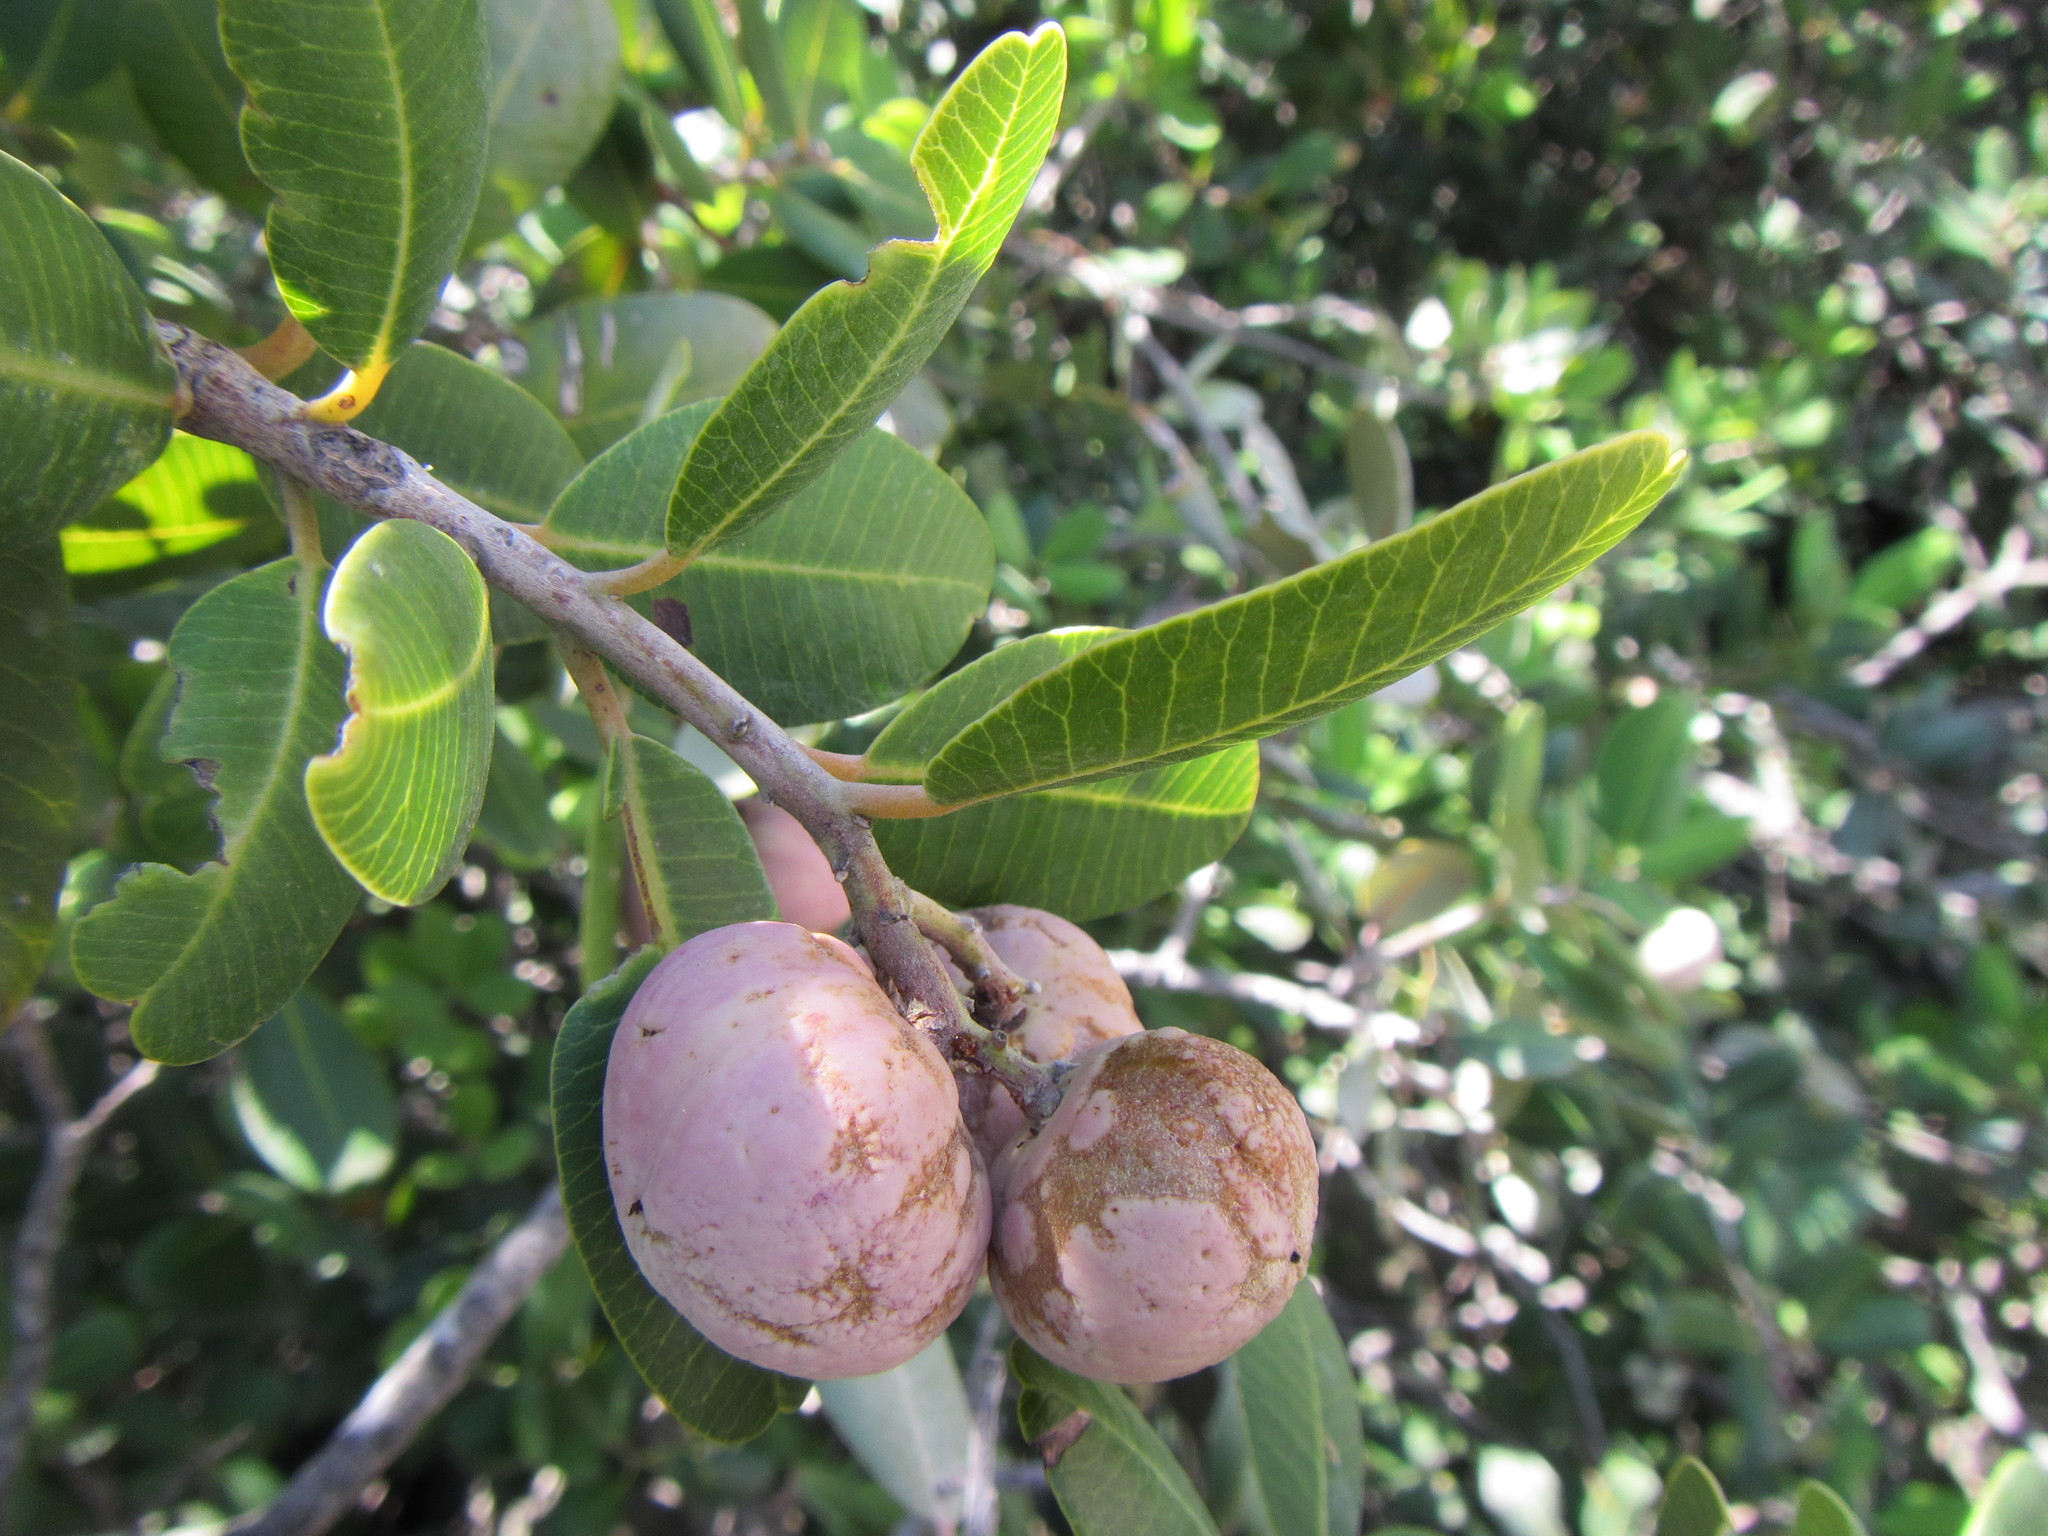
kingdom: Plantae
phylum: Tracheophyta
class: Magnoliopsida
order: Sapindales
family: Anacardiaceae
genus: Heeria
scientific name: Heeria argentea
